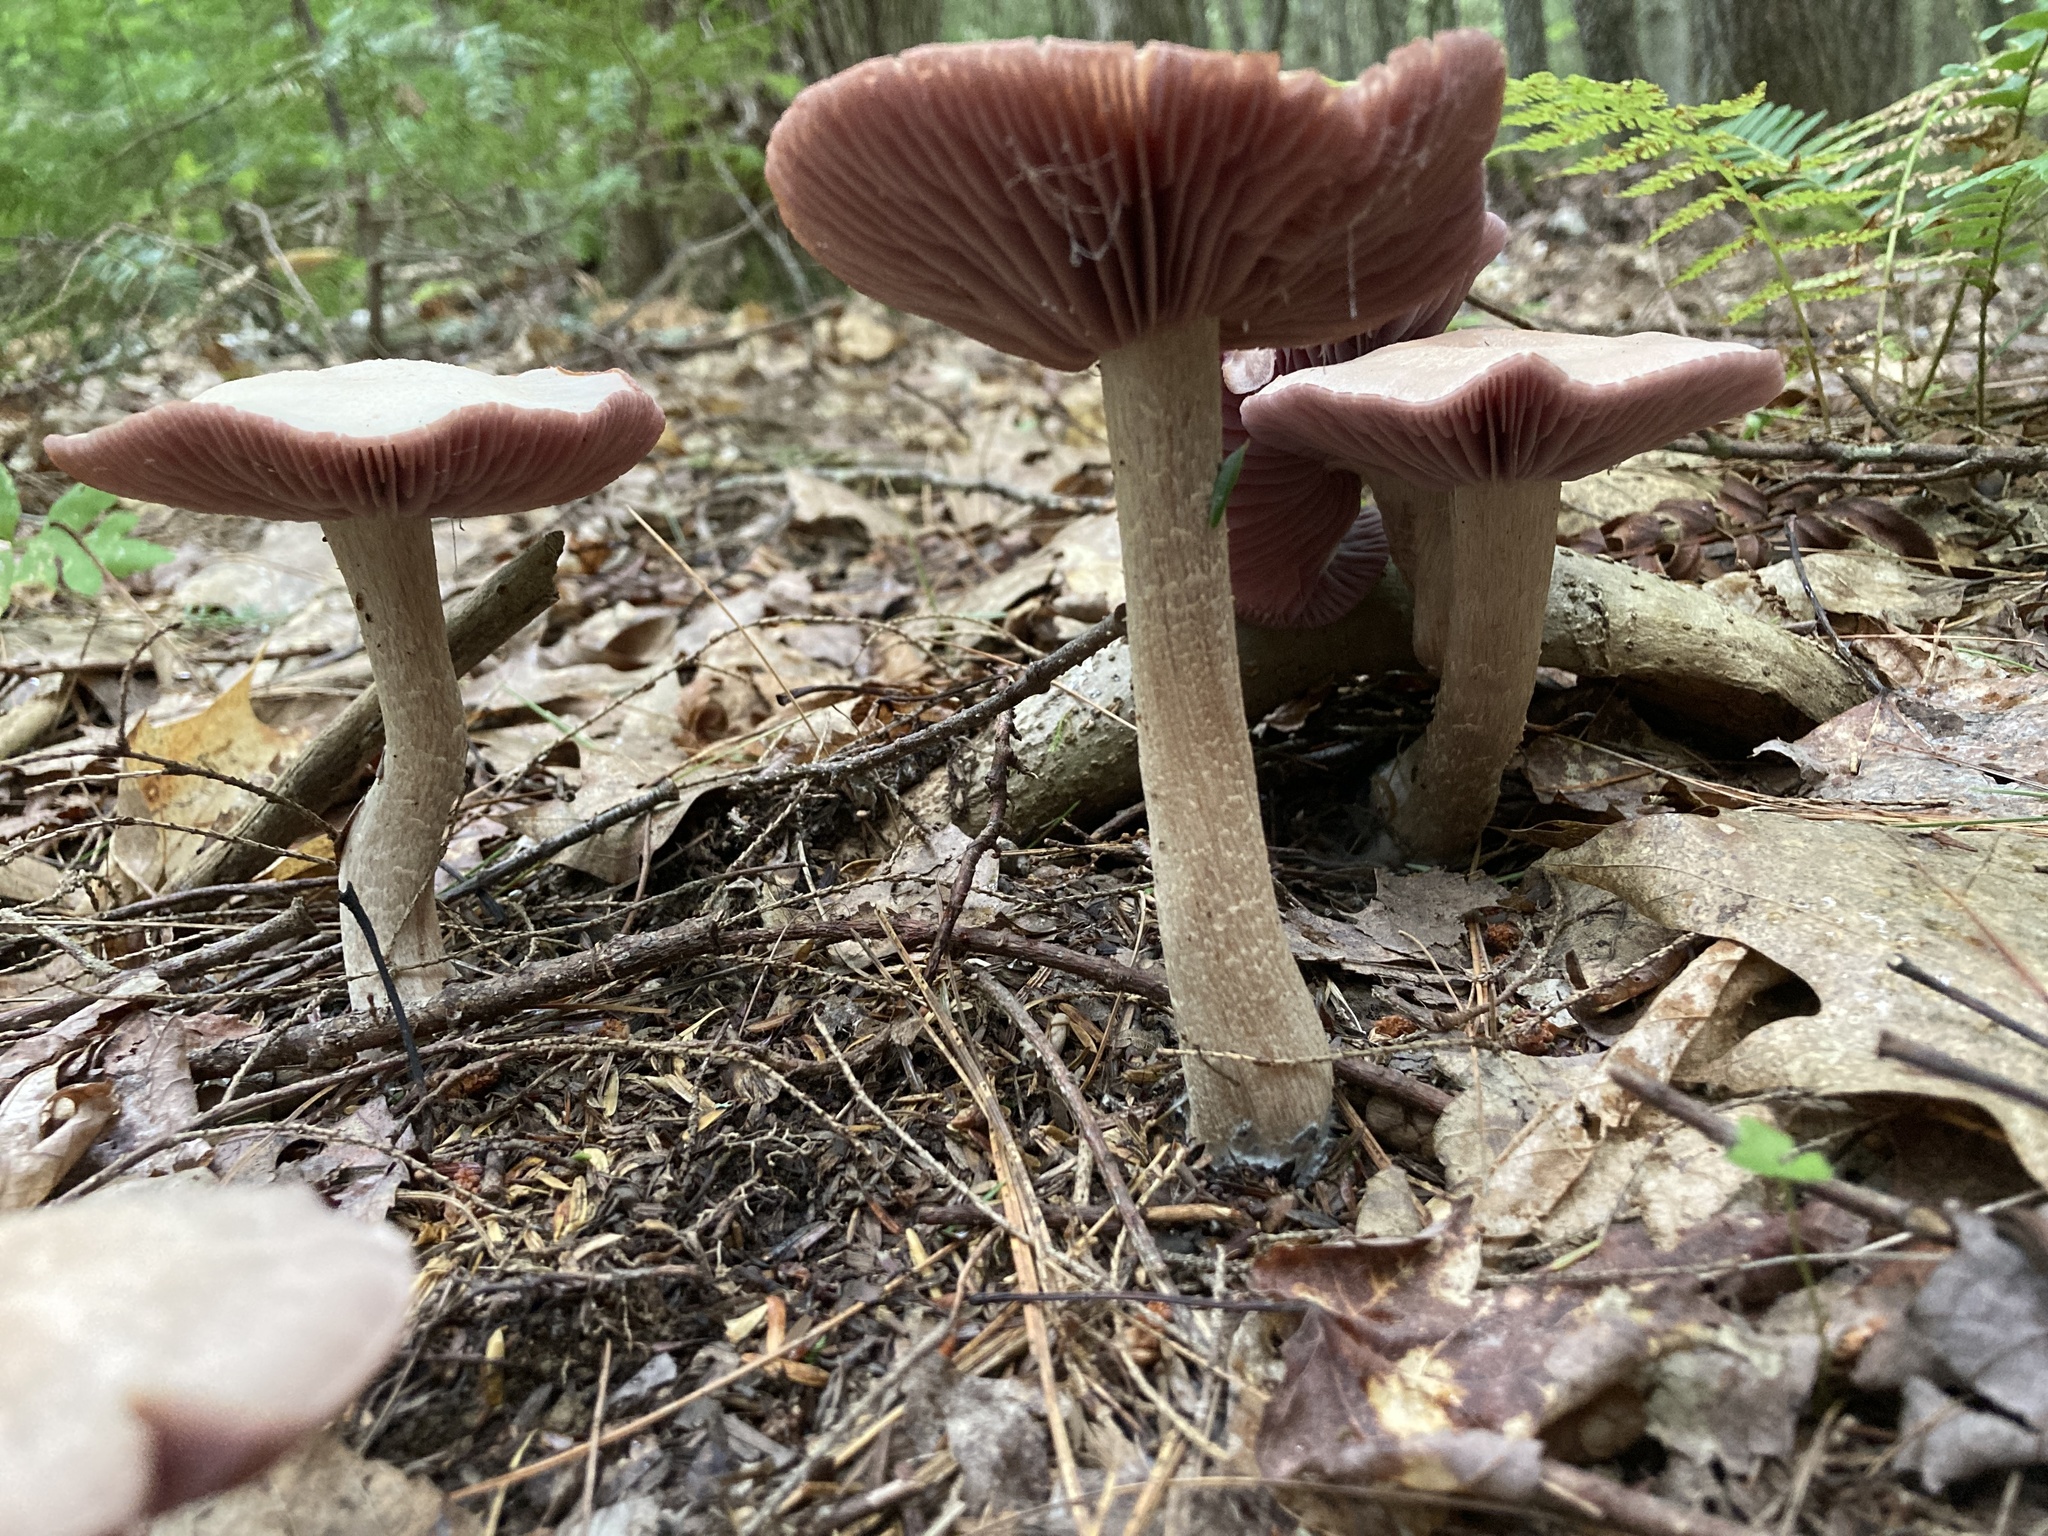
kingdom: Fungi
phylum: Basidiomycota
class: Agaricomycetes
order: Agaricales
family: Hydnangiaceae
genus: Laccaria
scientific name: Laccaria ochropurpurea
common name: Purple laccaria
